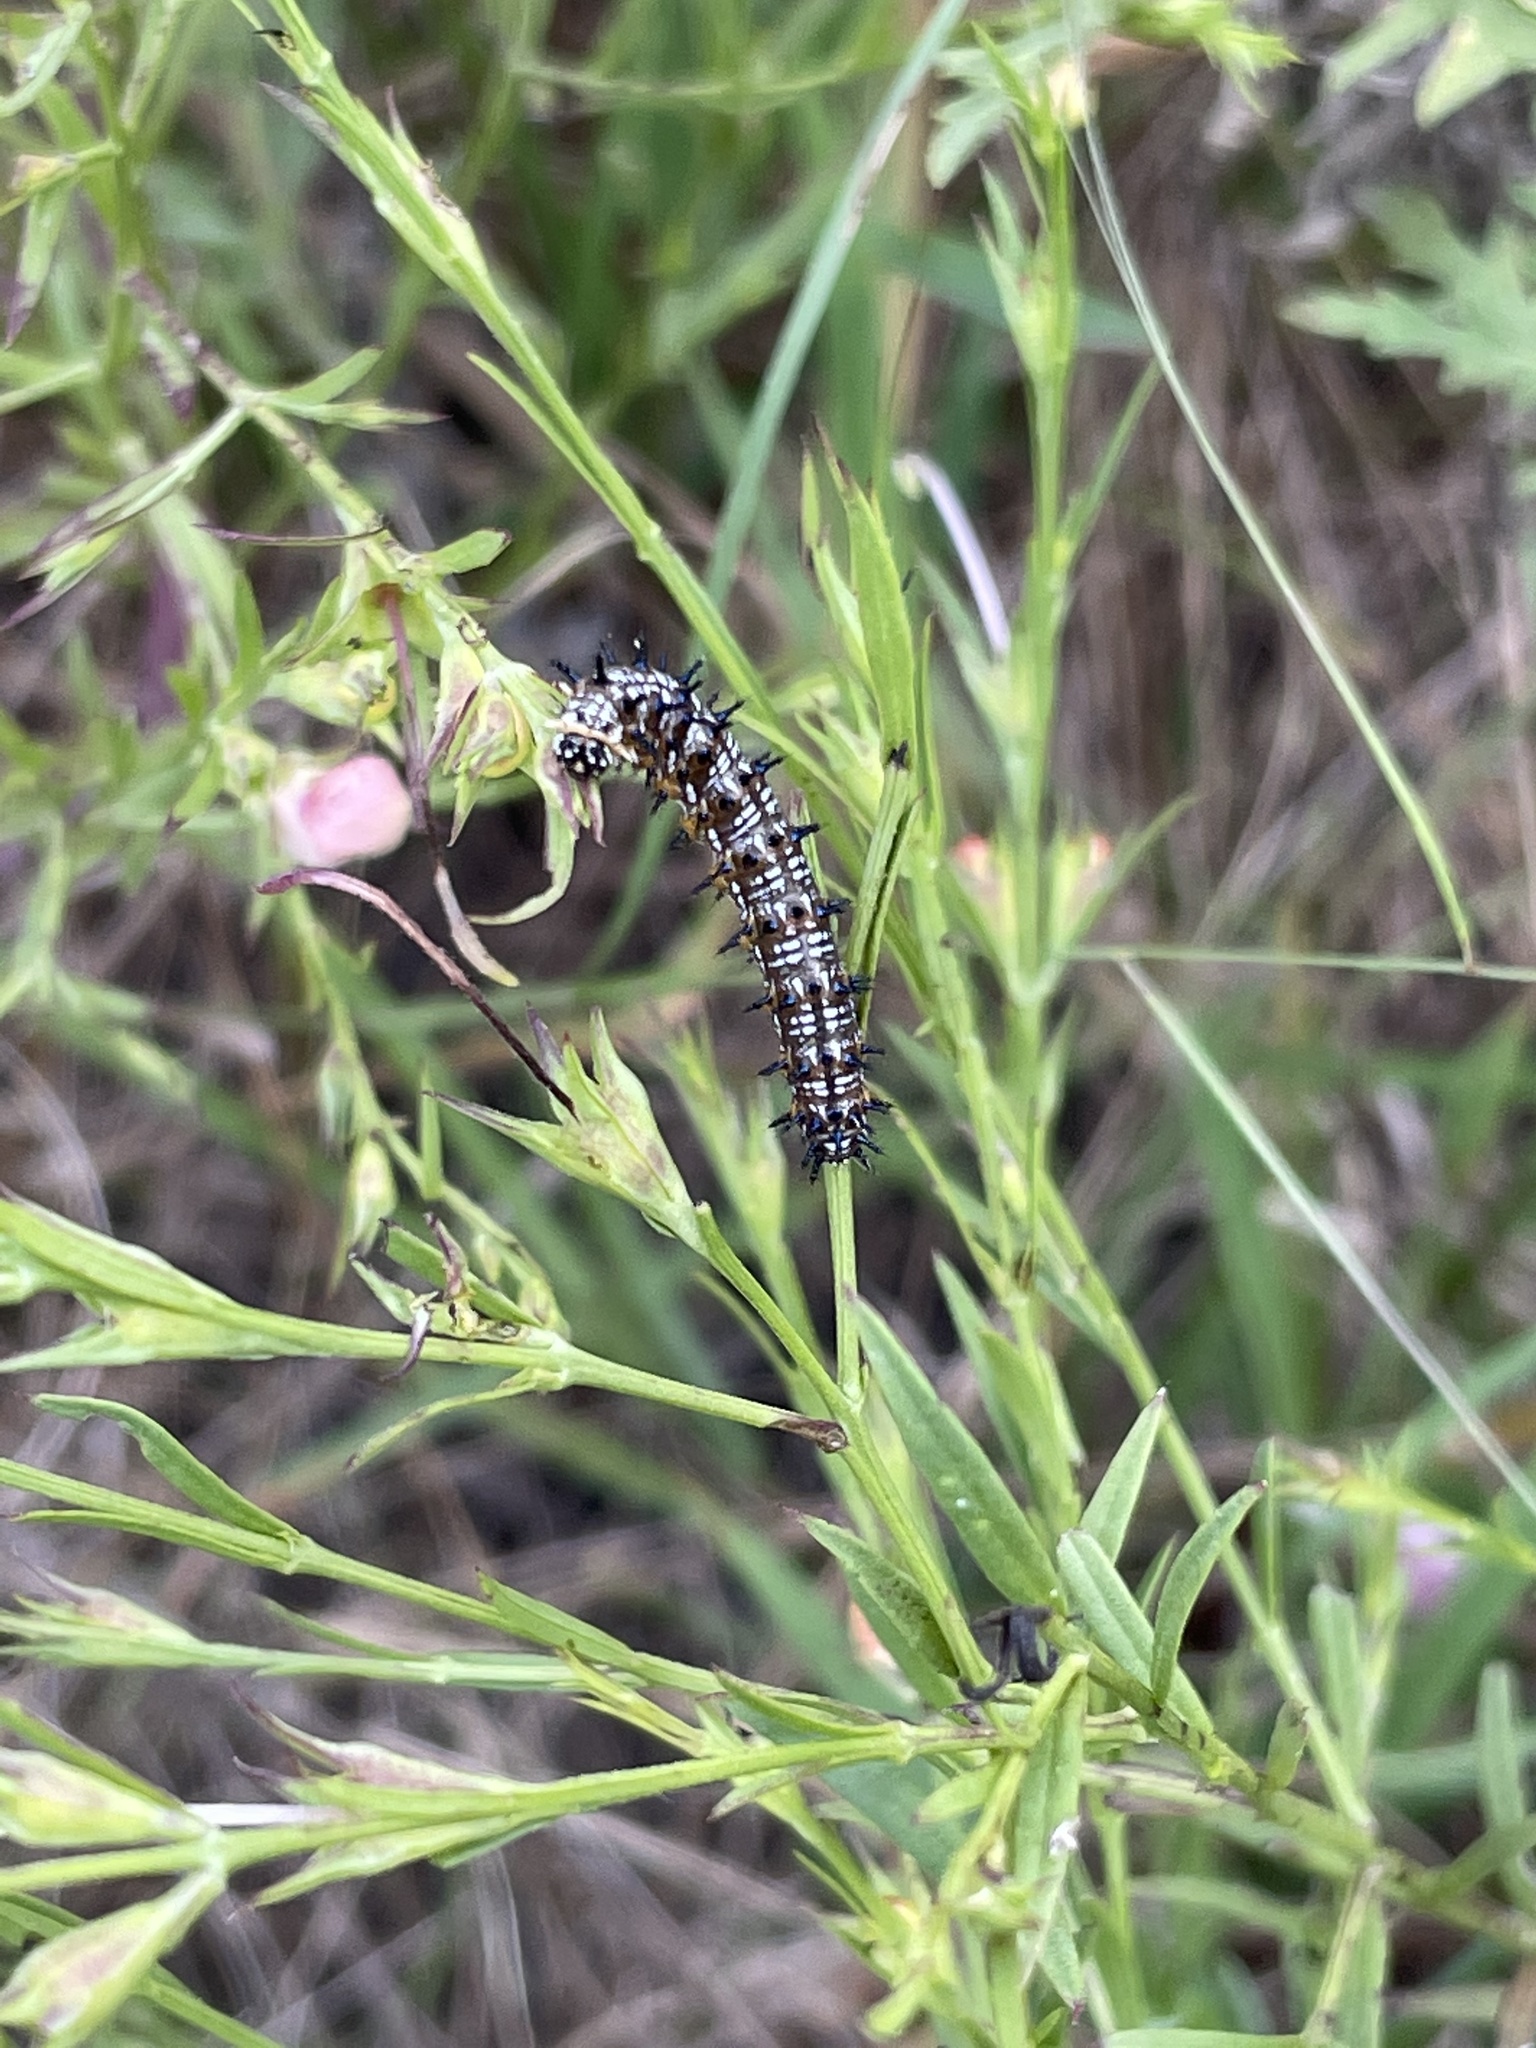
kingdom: Animalia
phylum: Arthropoda
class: Insecta
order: Lepidoptera
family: Nymphalidae
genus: Junonia
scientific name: Junonia coenia
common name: Common buckeye
